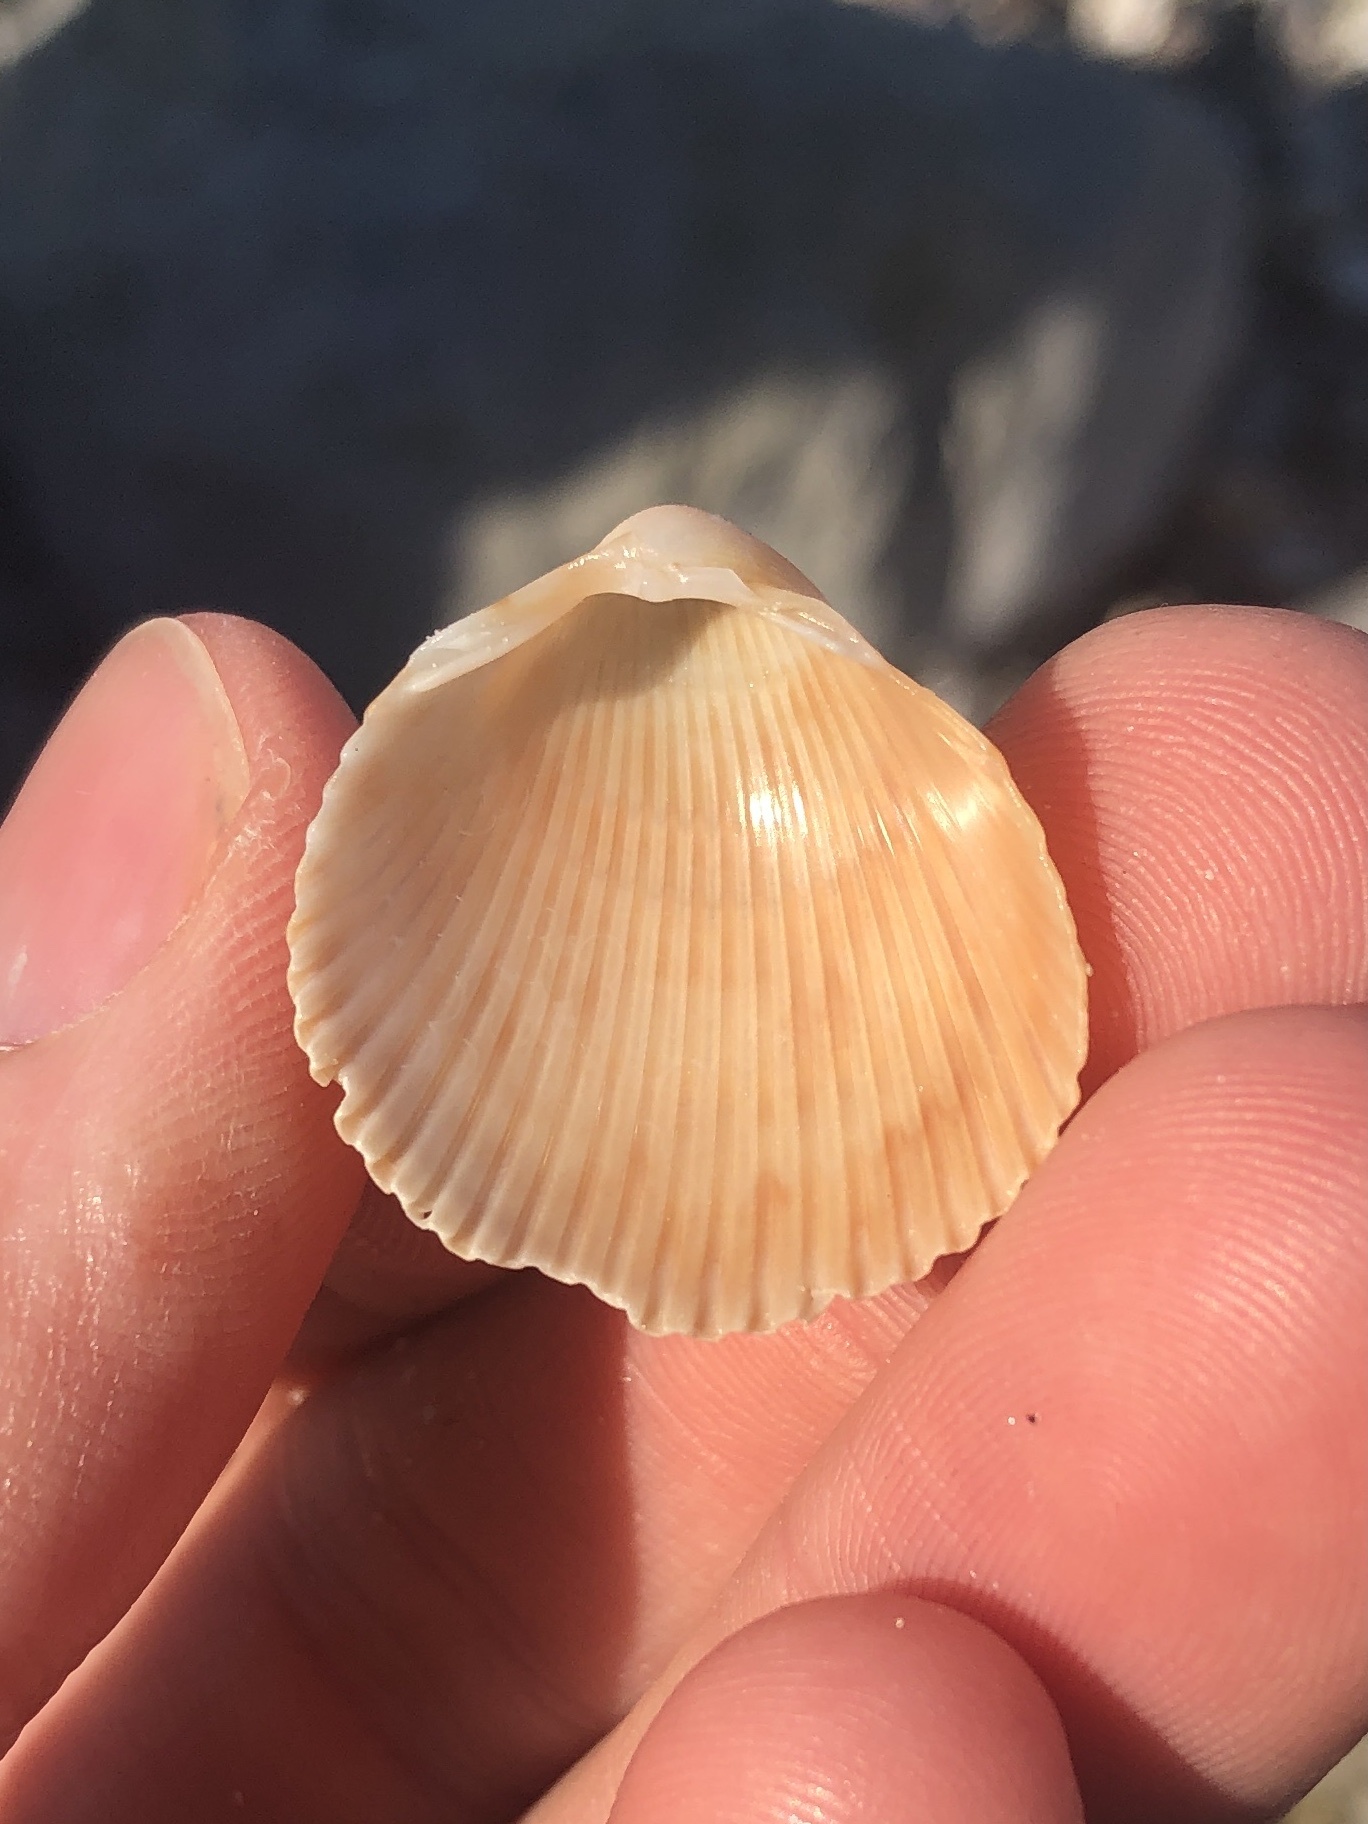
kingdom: Animalia
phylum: Mollusca
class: Bivalvia
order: Cardiida
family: Cardiidae
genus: Dinocardium
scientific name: Dinocardium robustum
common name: Atlantic giant cockle
